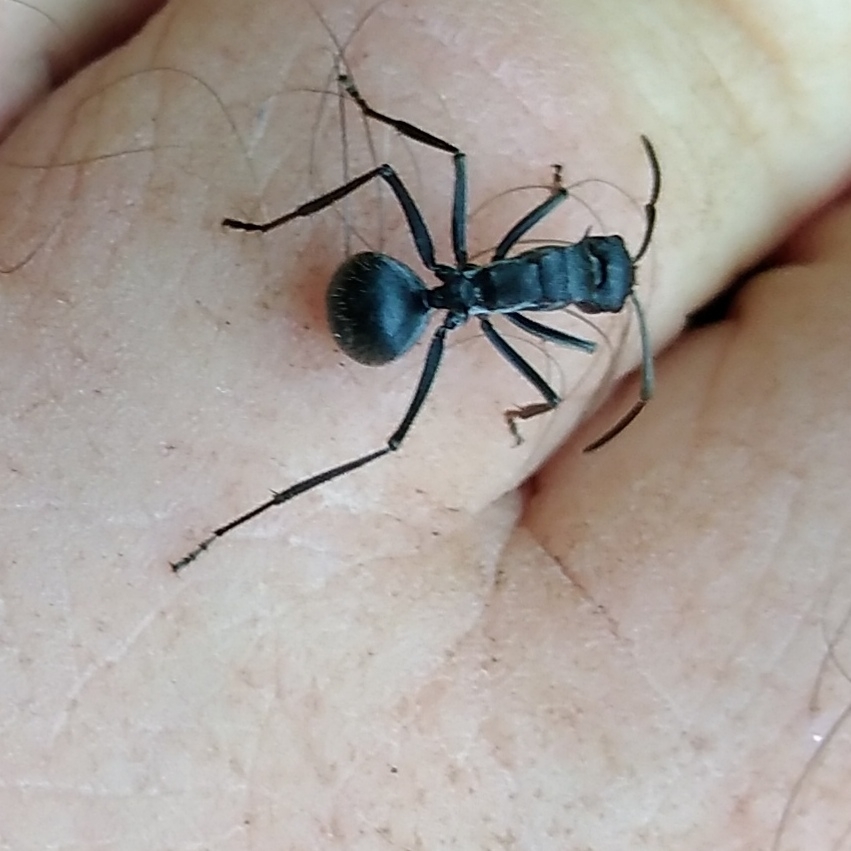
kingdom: Animalia
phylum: Arthropoda
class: Insecta
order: Hymenoptera
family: Formicidae
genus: Polyrhachis
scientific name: Polyrhachis schistacea
